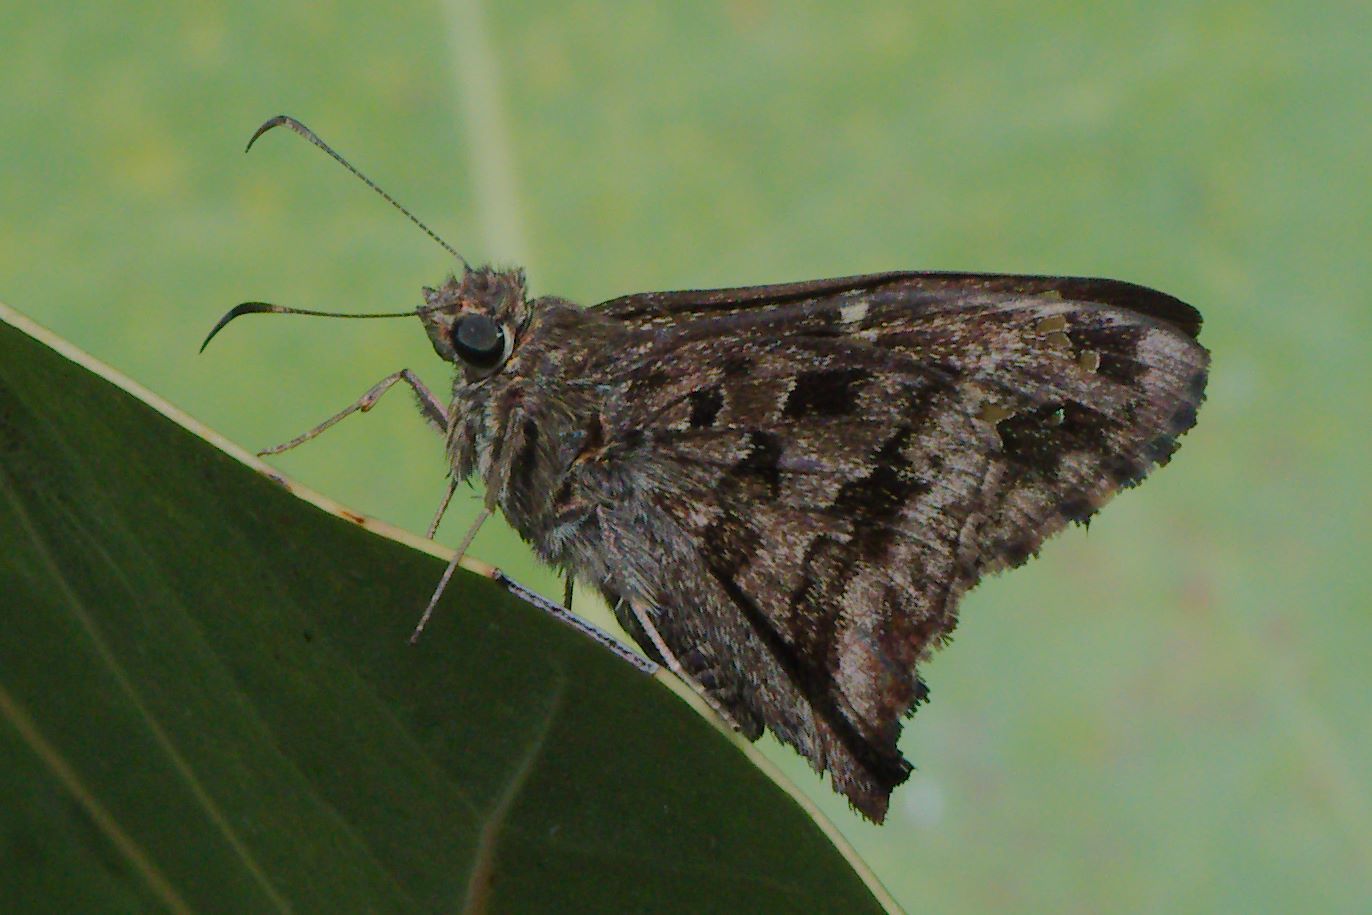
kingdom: Animalia
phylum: Arthropoda
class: Insecta
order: Lepidoptera
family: Hesperiidae
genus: Thorybes
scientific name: Thorybes
